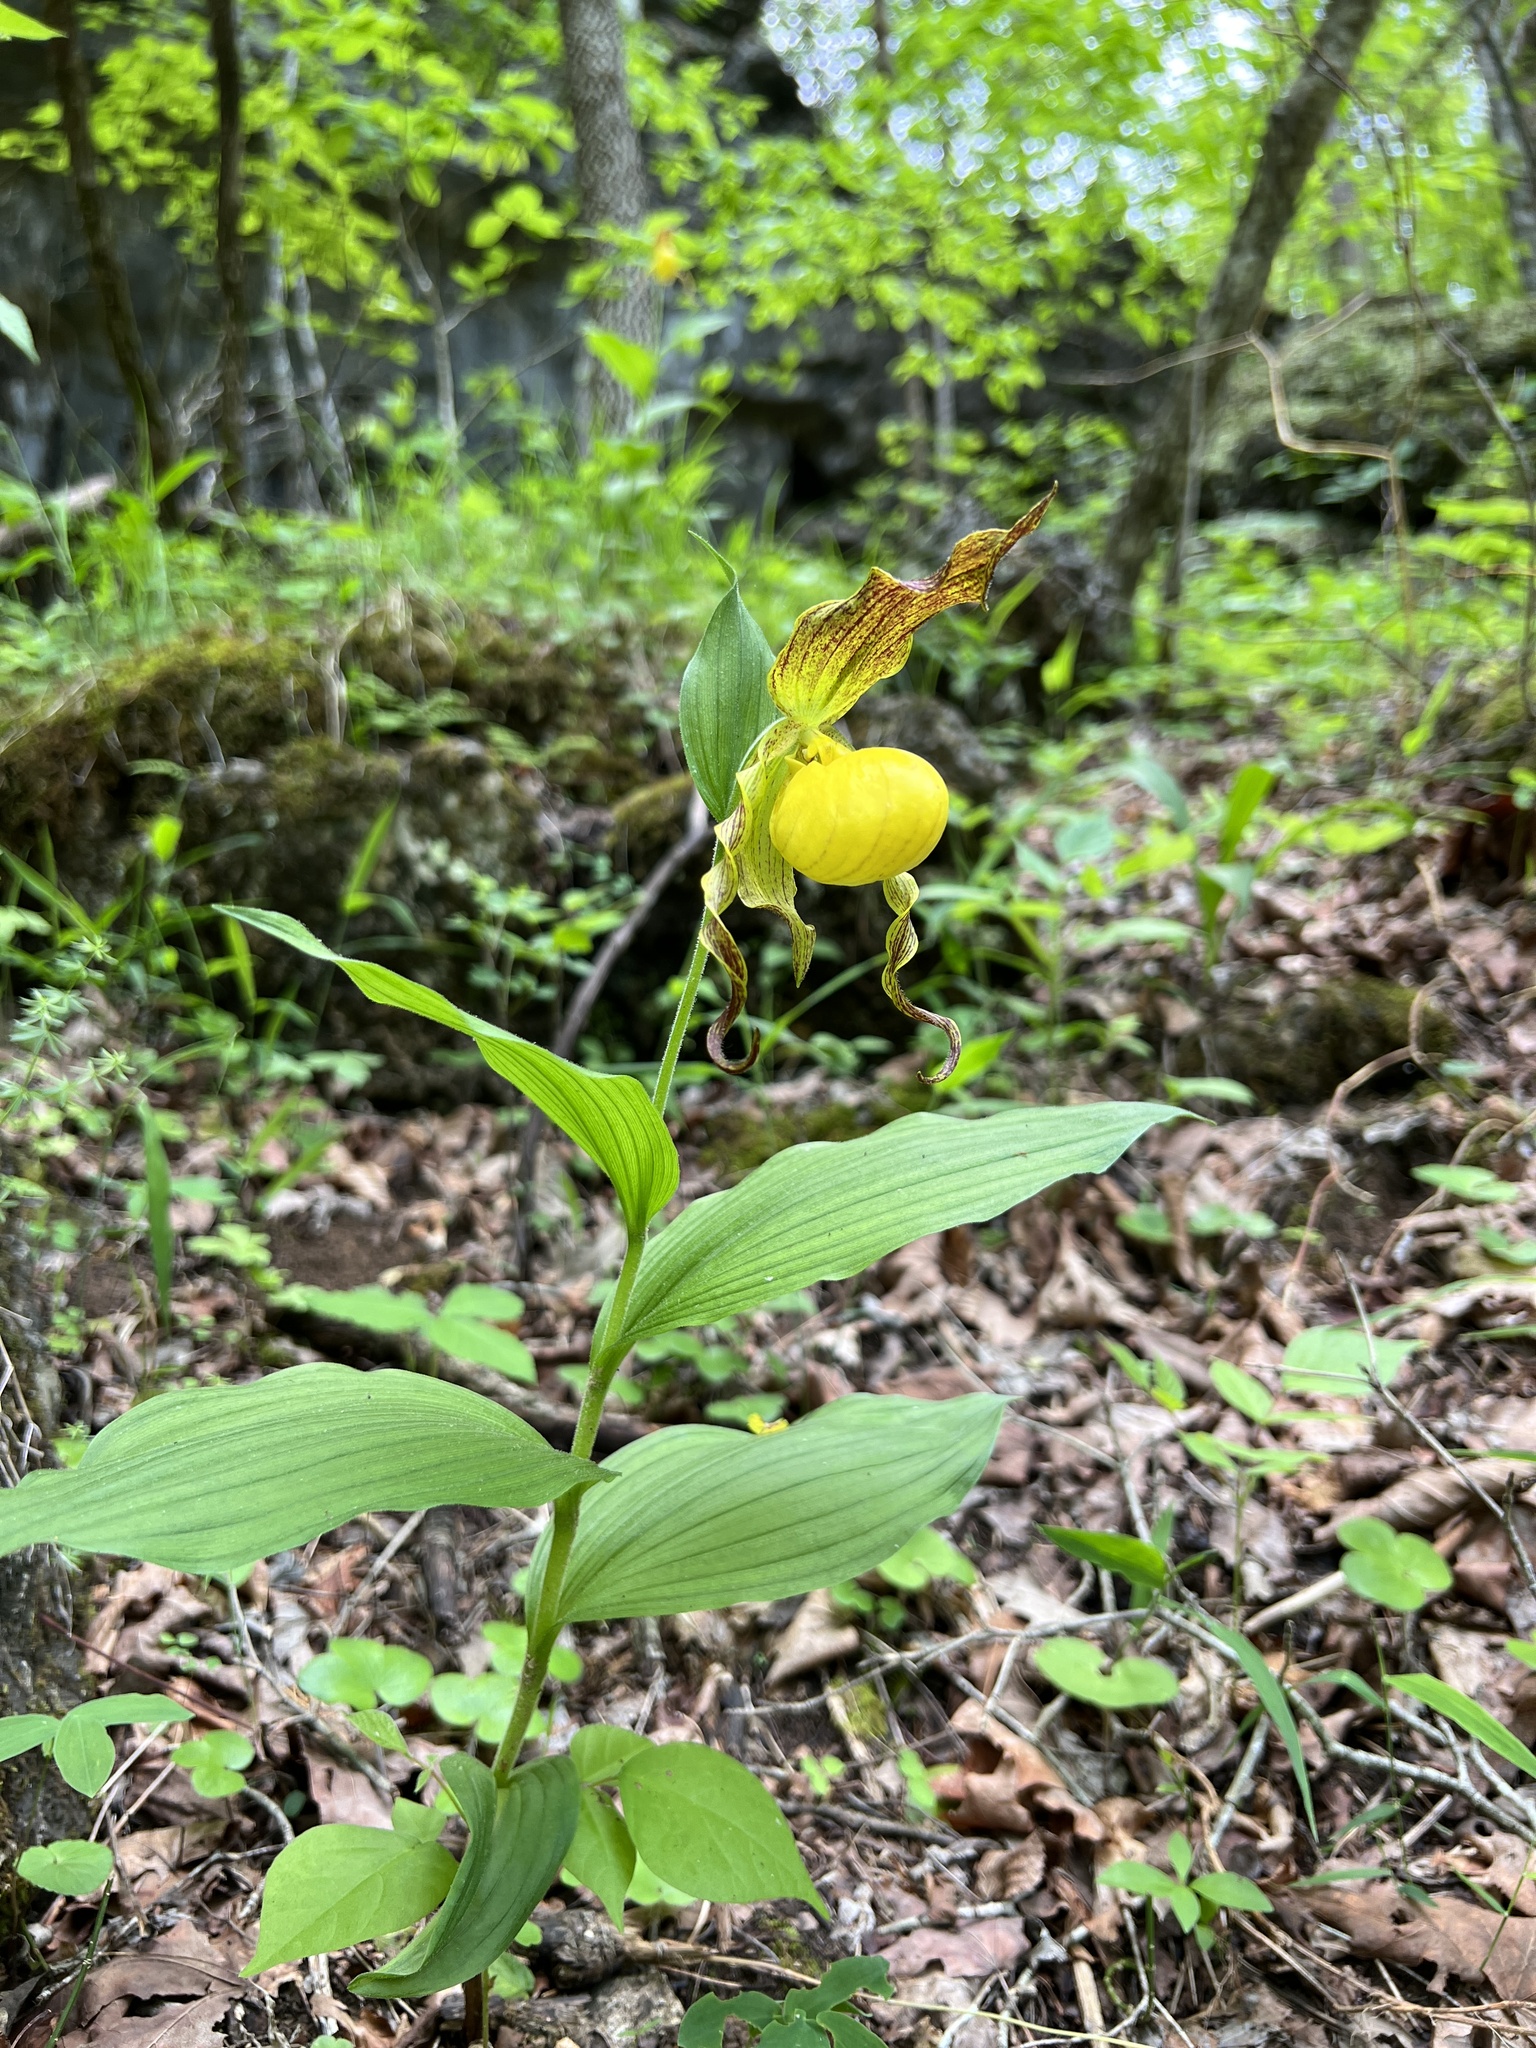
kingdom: Plantae
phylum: Tracheophyta
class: Liliopsida
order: Asparagales
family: Orchidaceae
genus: Cypripedium
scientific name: Cypripedium parviflorum
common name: American yellow lady's-slipper
